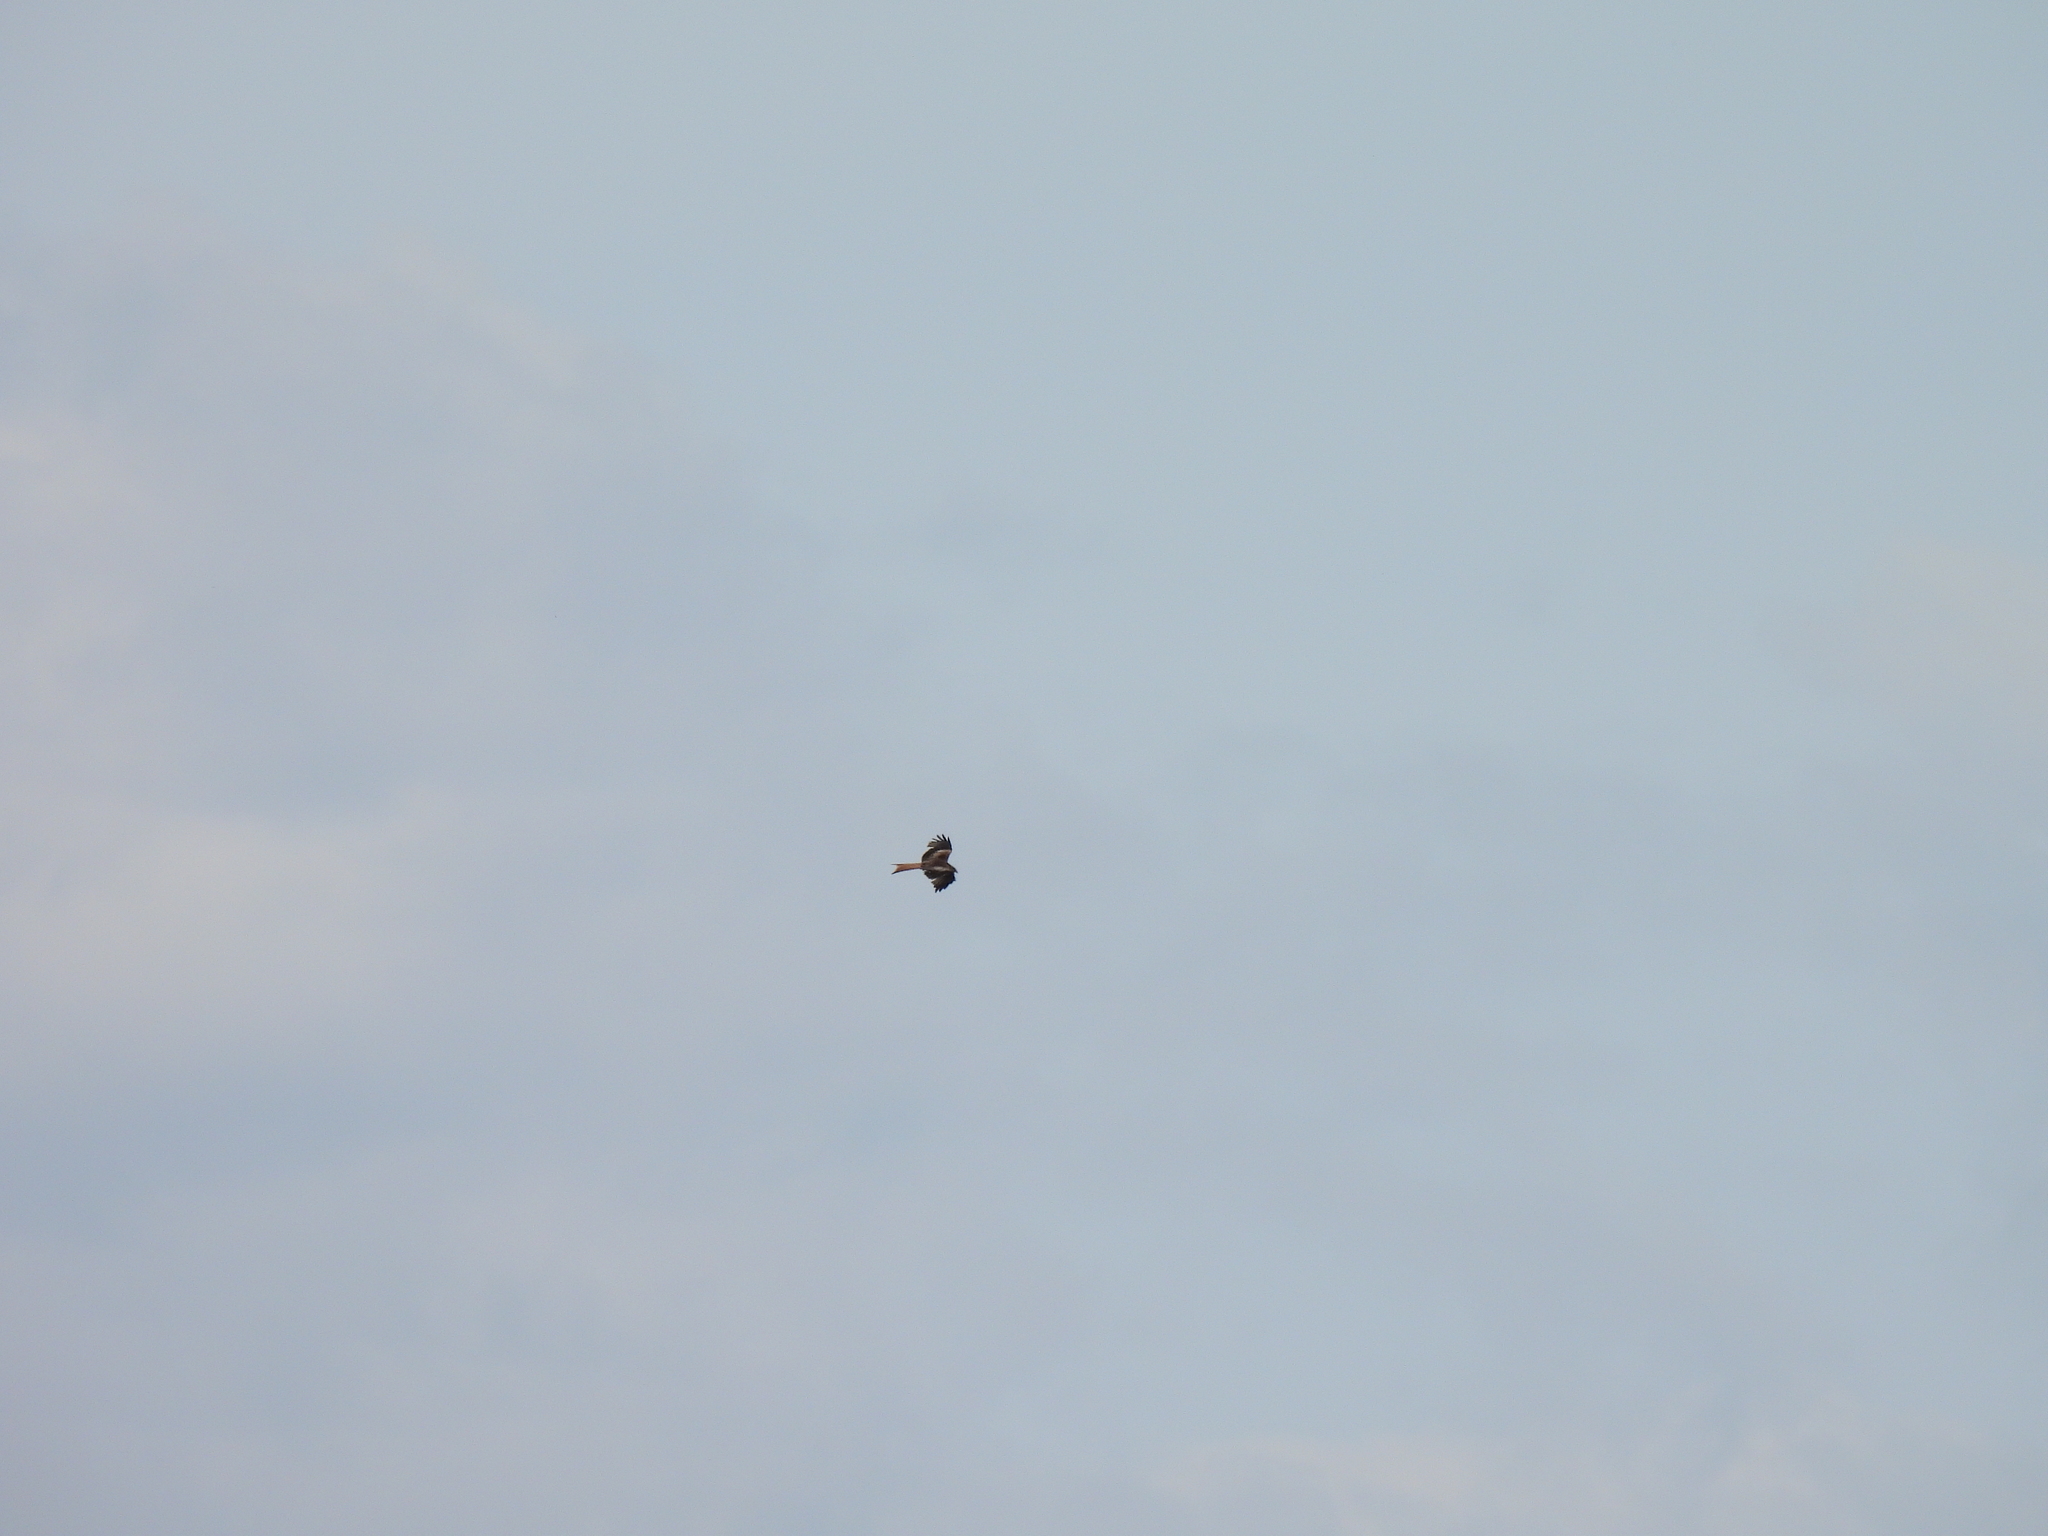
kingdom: Animalia
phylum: Chordata
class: Aves
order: Accipitriformes
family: Accipitridae
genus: Milvus
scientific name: Milvus milvus
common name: Red kite
